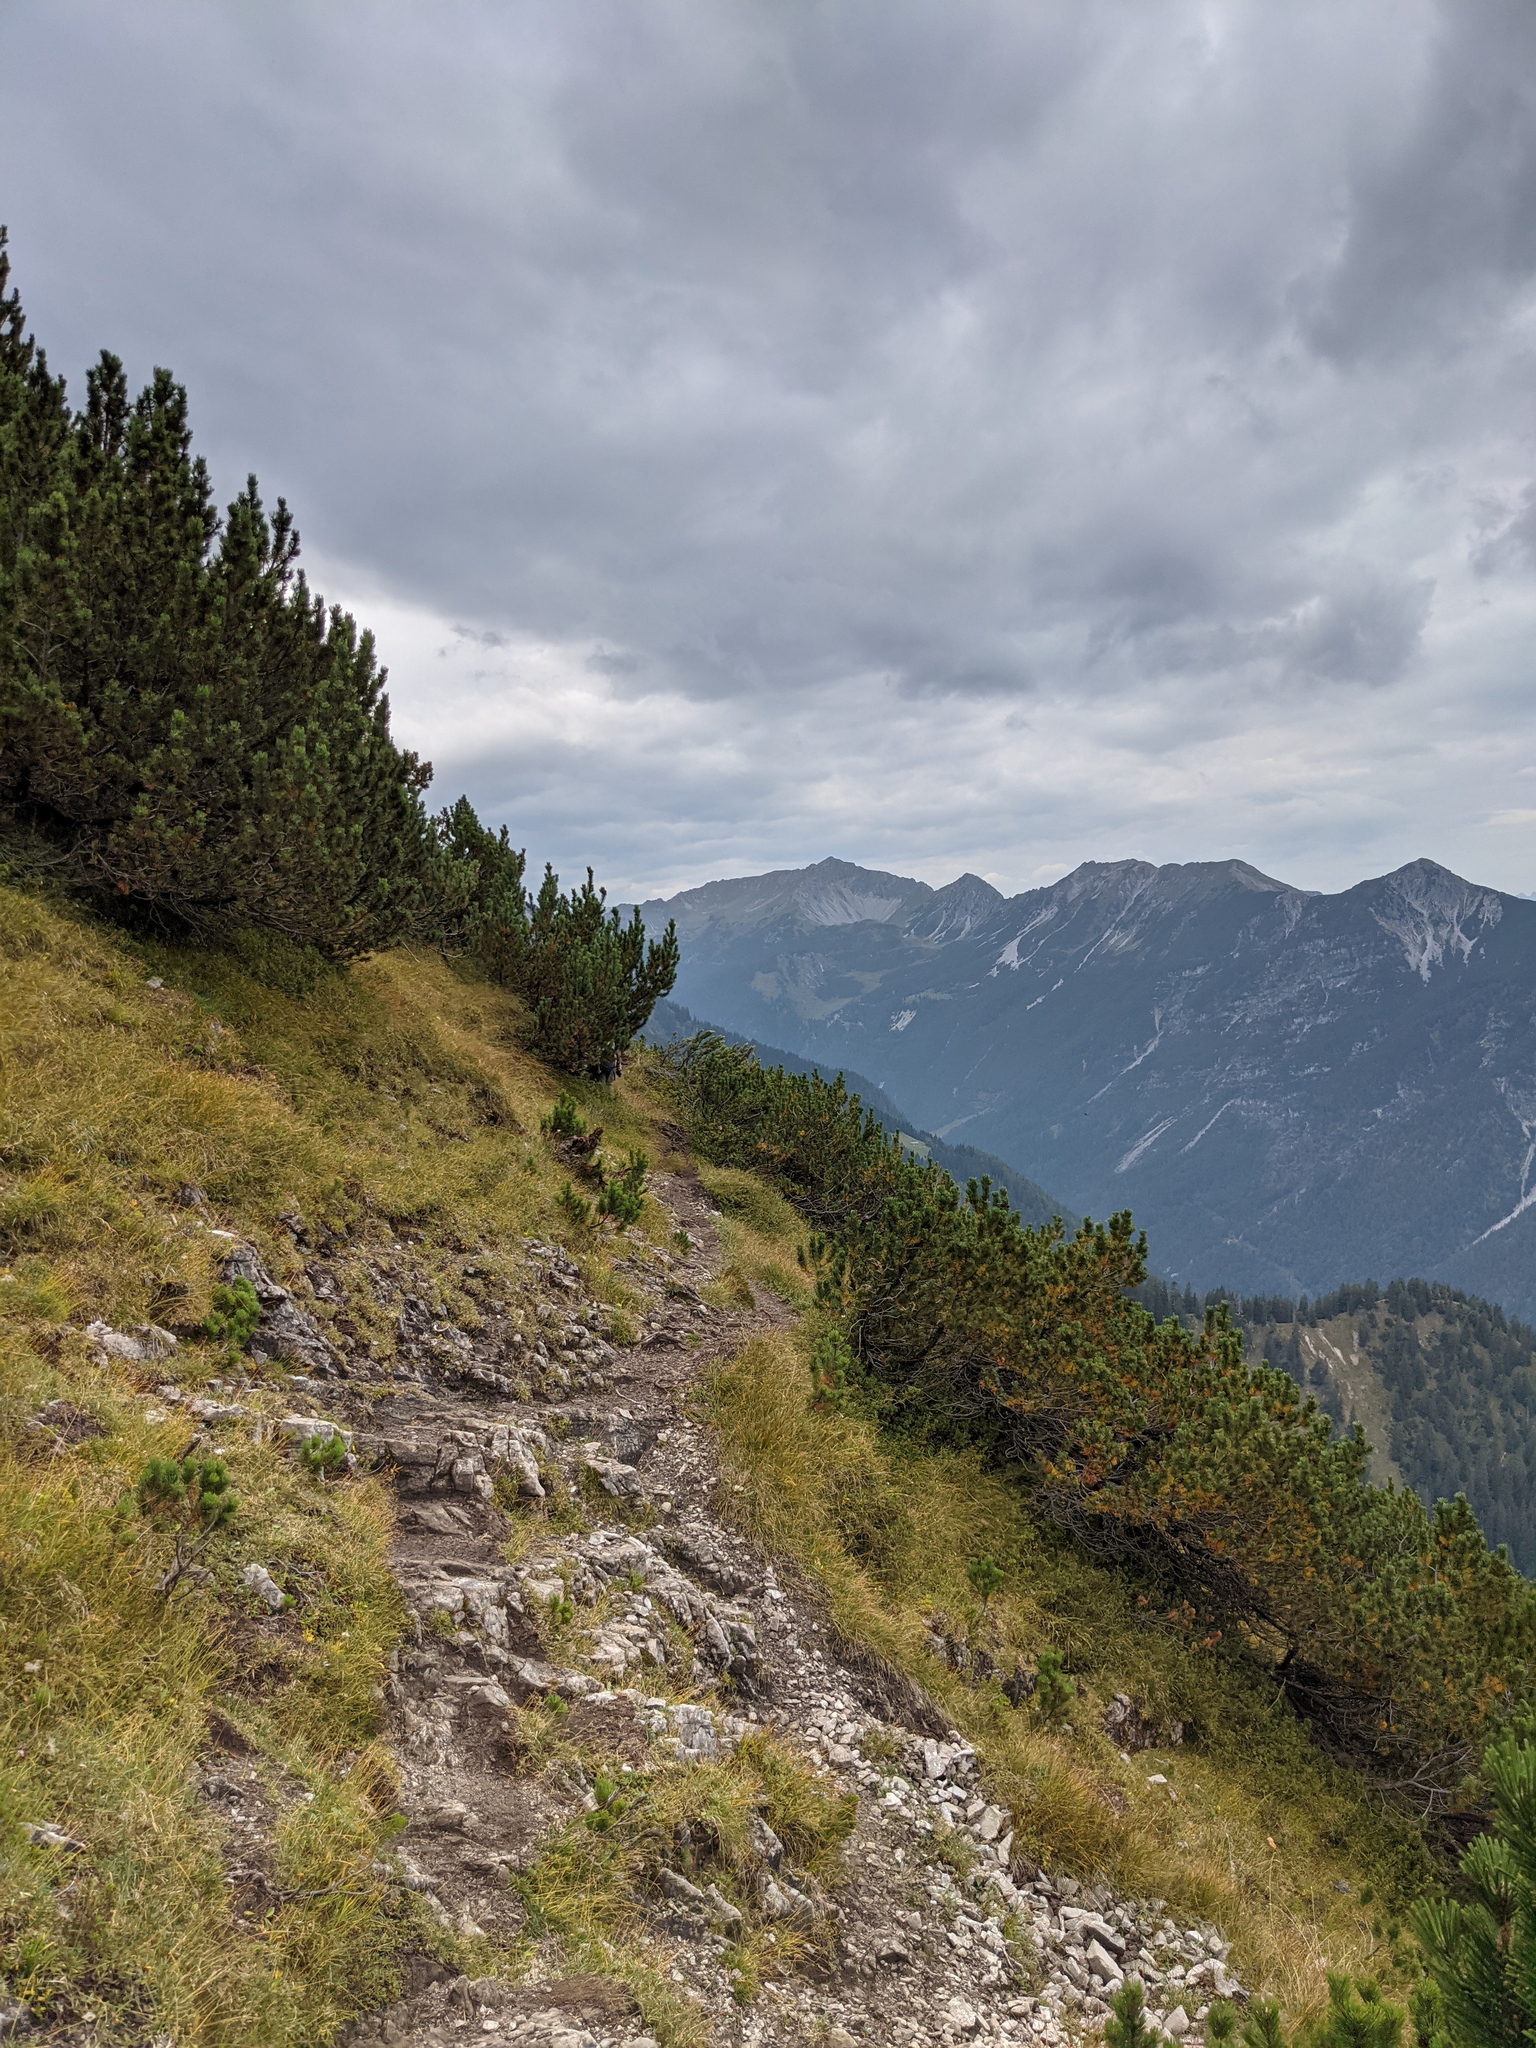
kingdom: Plantae
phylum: Tracheophyta
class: Pinopsida
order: Pinales
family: Pinaceae
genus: Pinus
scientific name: Pinus mugo
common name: Mugo pine
